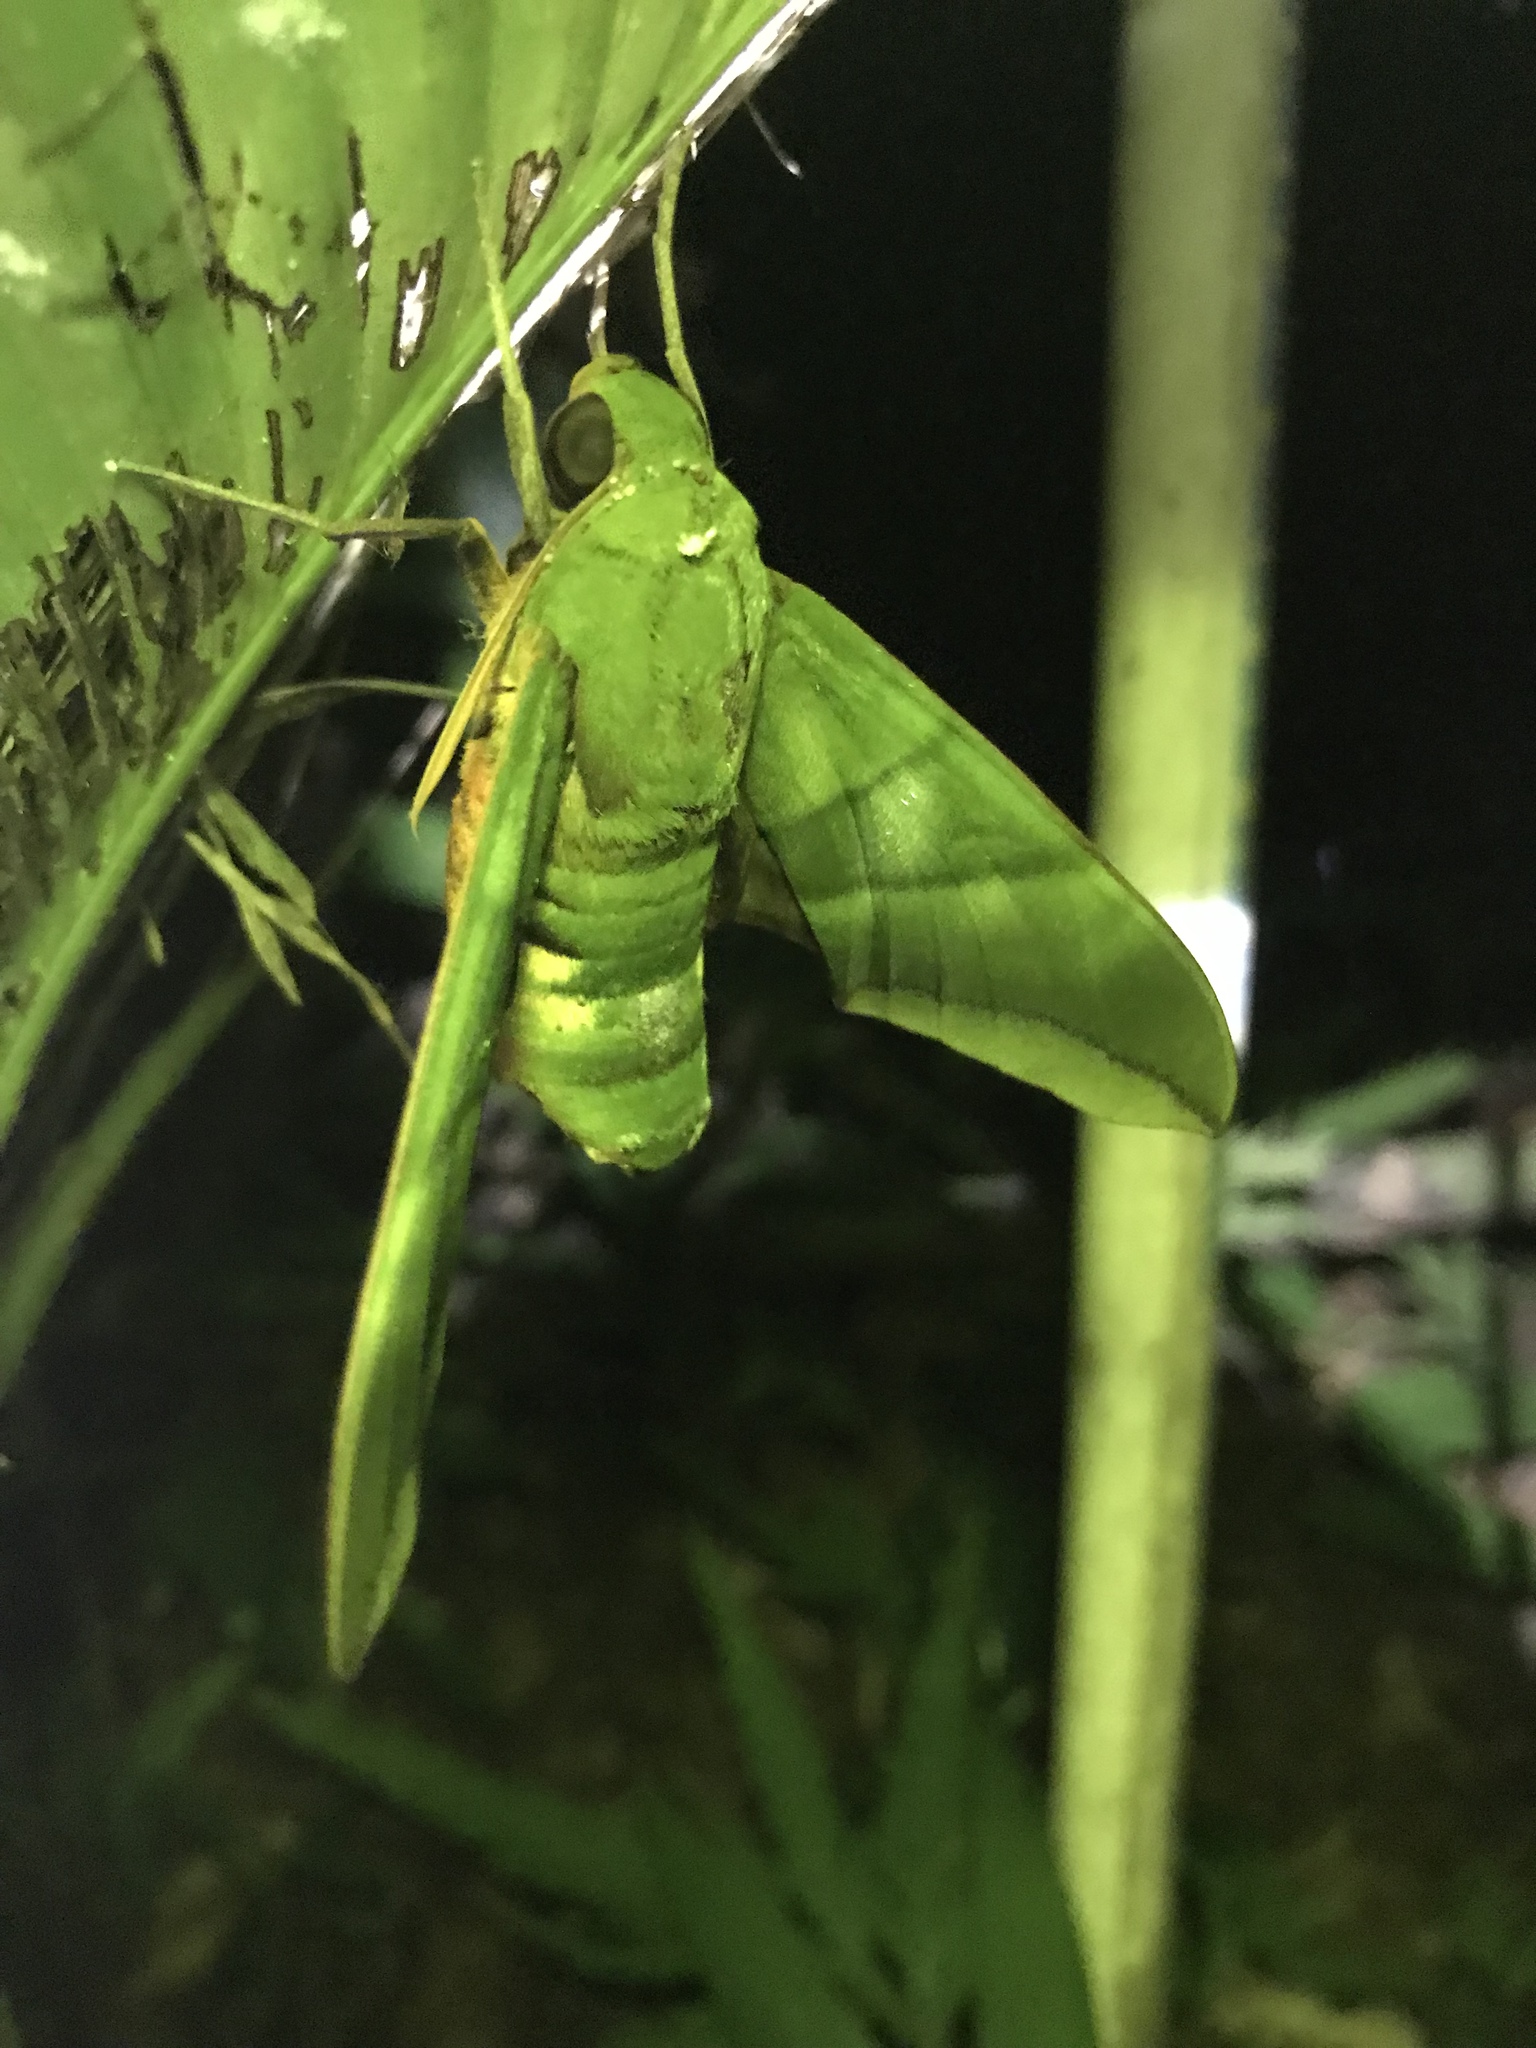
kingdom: Animalia
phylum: Arthropoda
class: Insecta
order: Lepidoptera
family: Sphingidae
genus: Oryba
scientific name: Oryba achemenides
